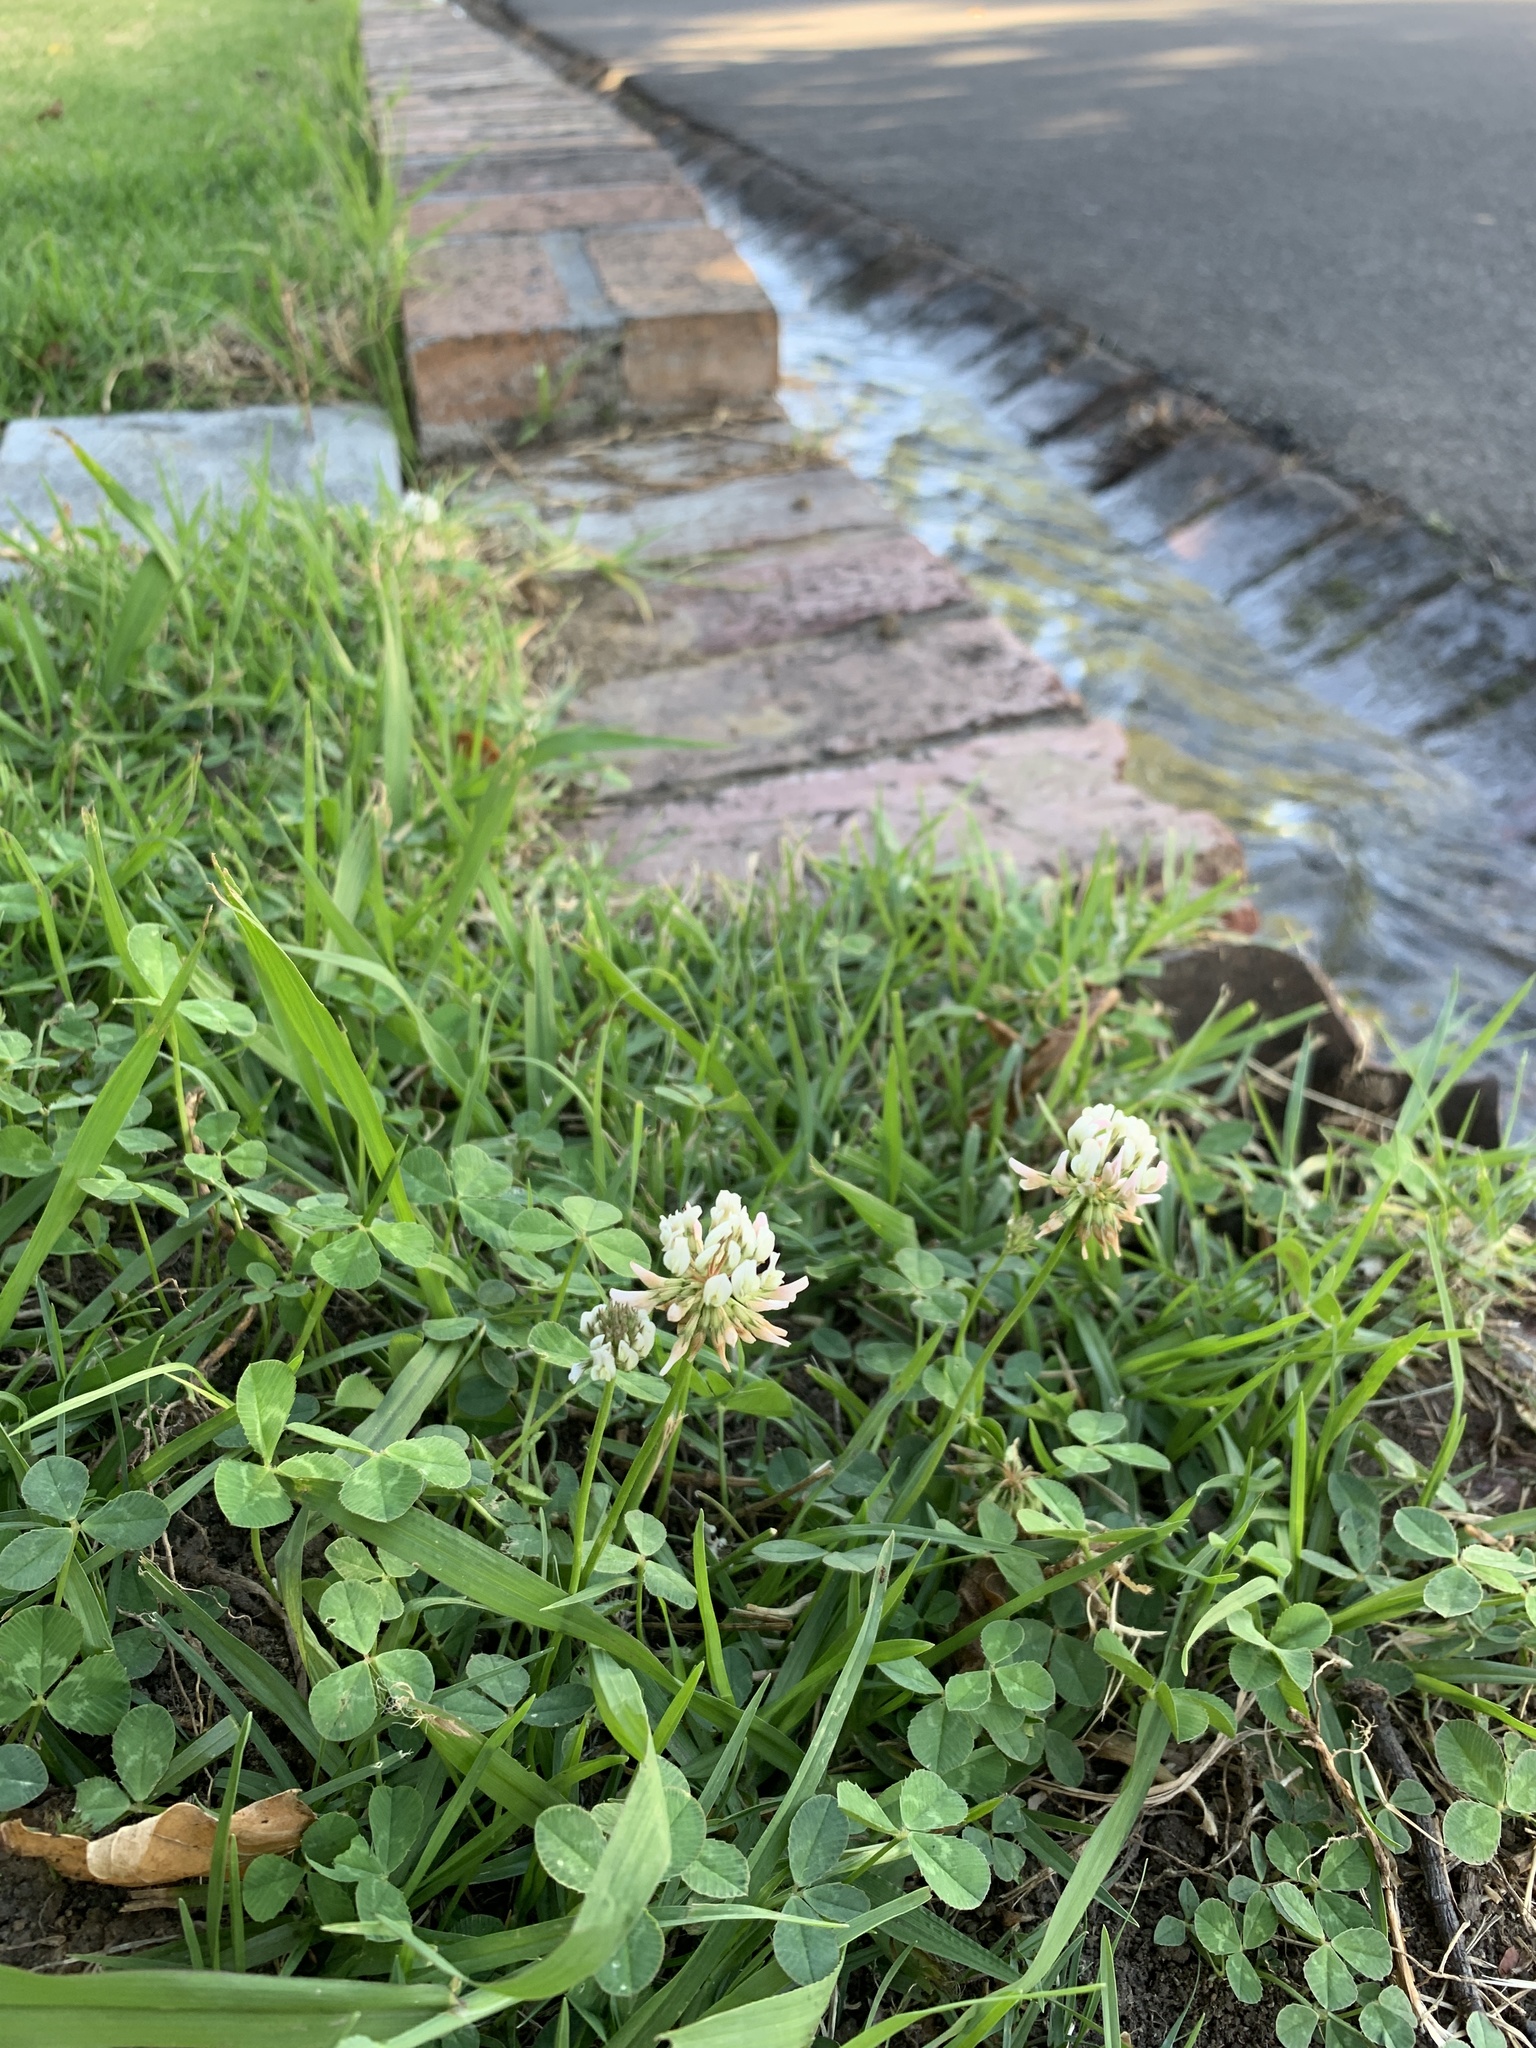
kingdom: Plantae
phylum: Tracheophyta
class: Magnoliopsida
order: Fabales
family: Fabaceae
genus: Trifolium
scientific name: Trifolium repens
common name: White clover
